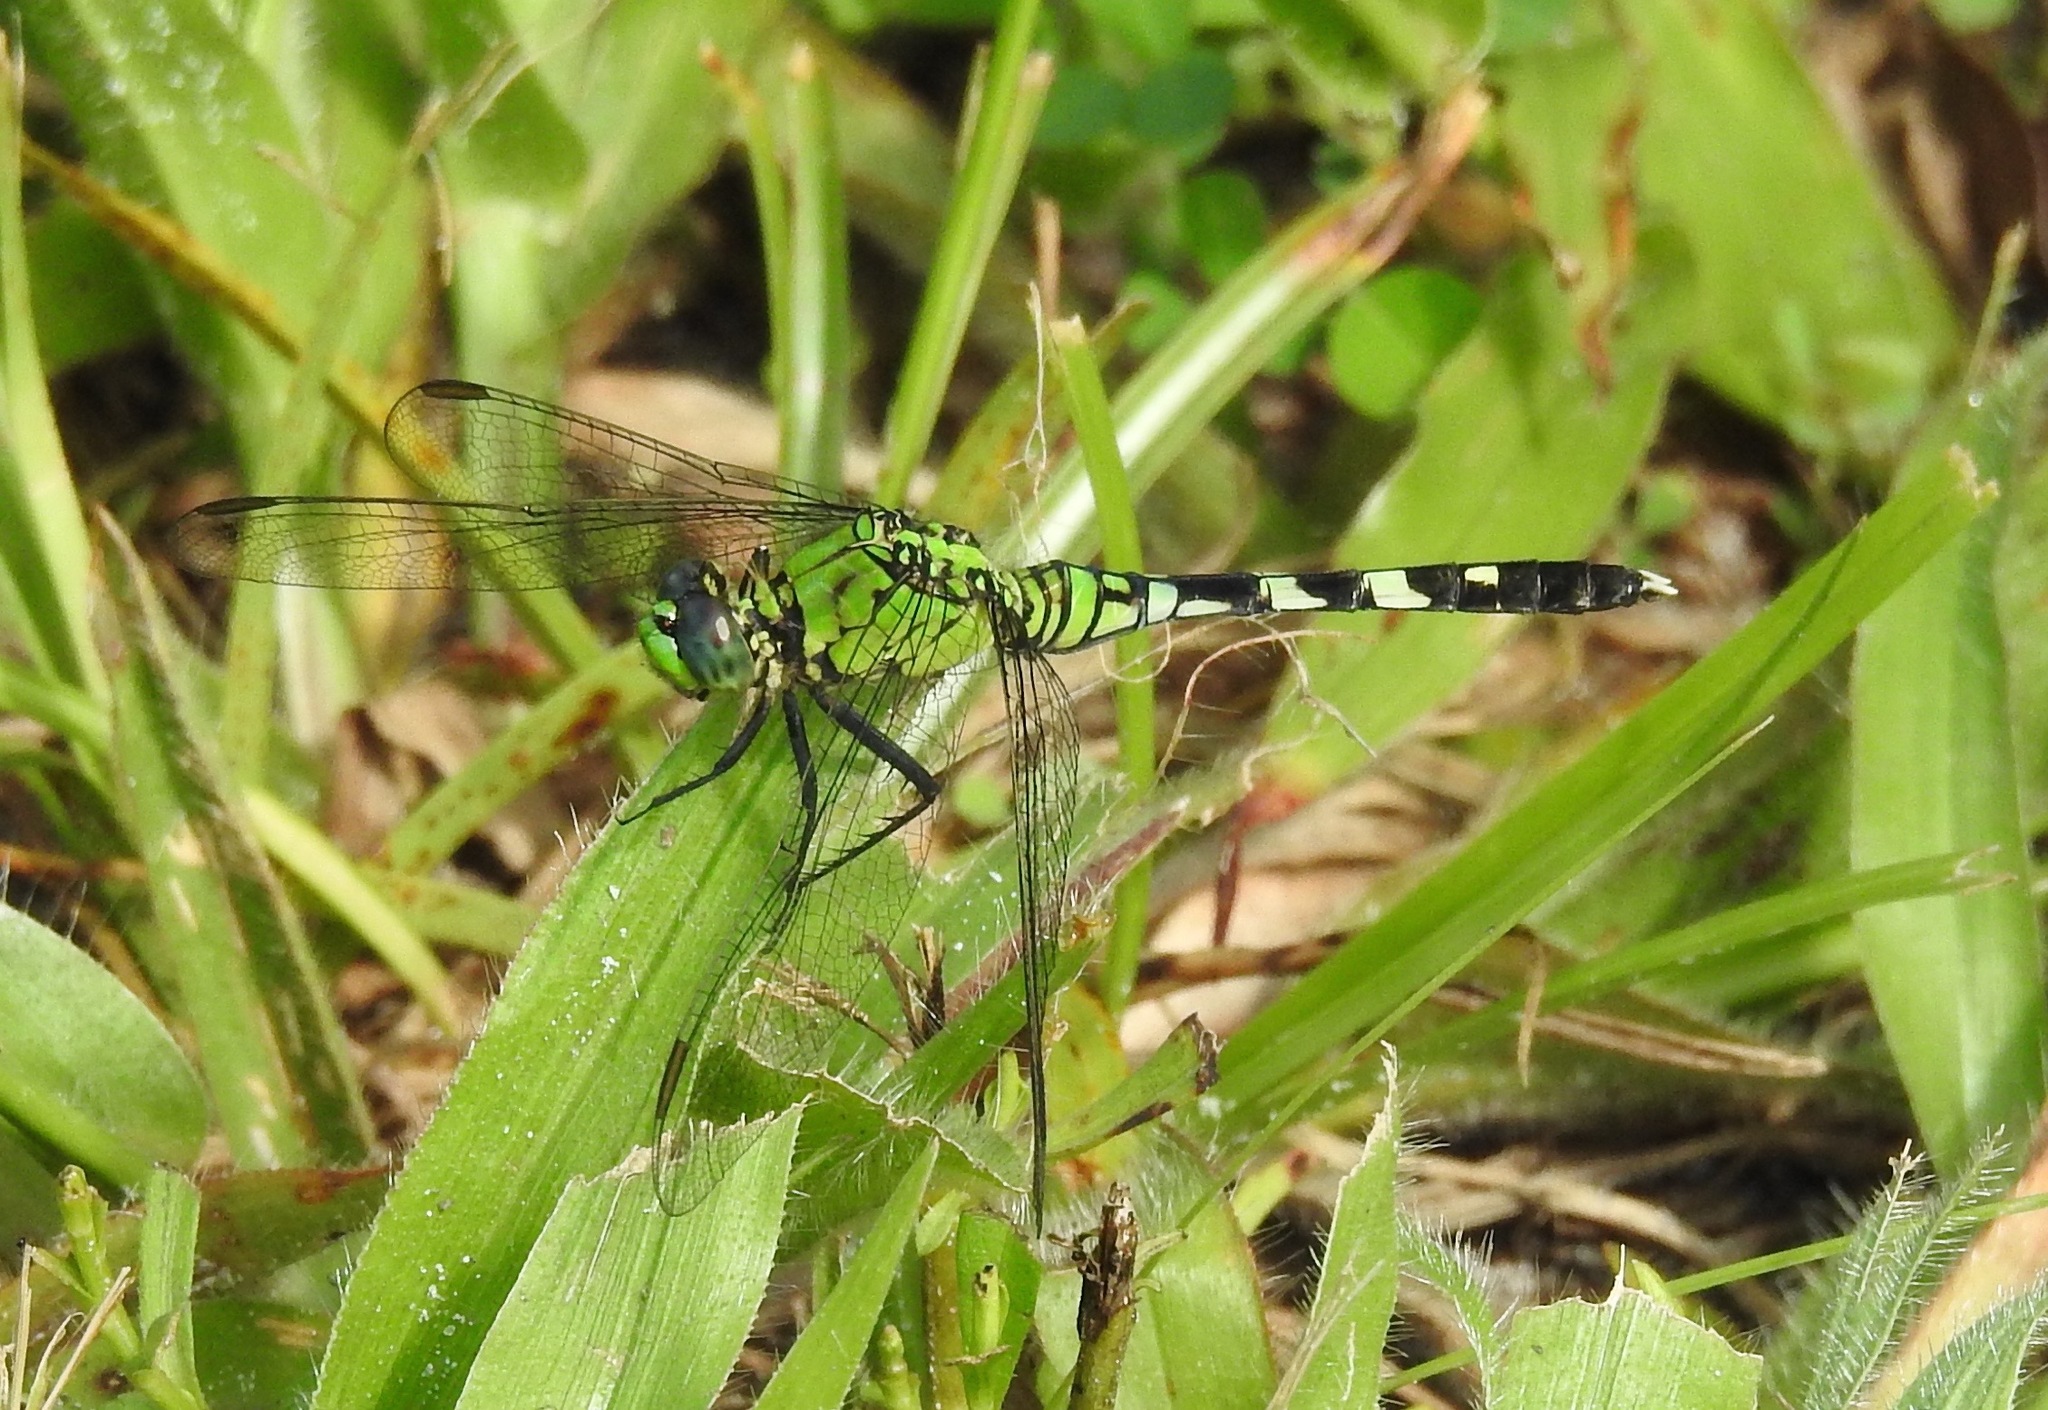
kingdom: Animalia
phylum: Arthropoda
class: Insecta
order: Odonata
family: Libellulidae
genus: Erythemis
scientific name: Erythemis simplicicollis
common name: Eastern pondhawk
